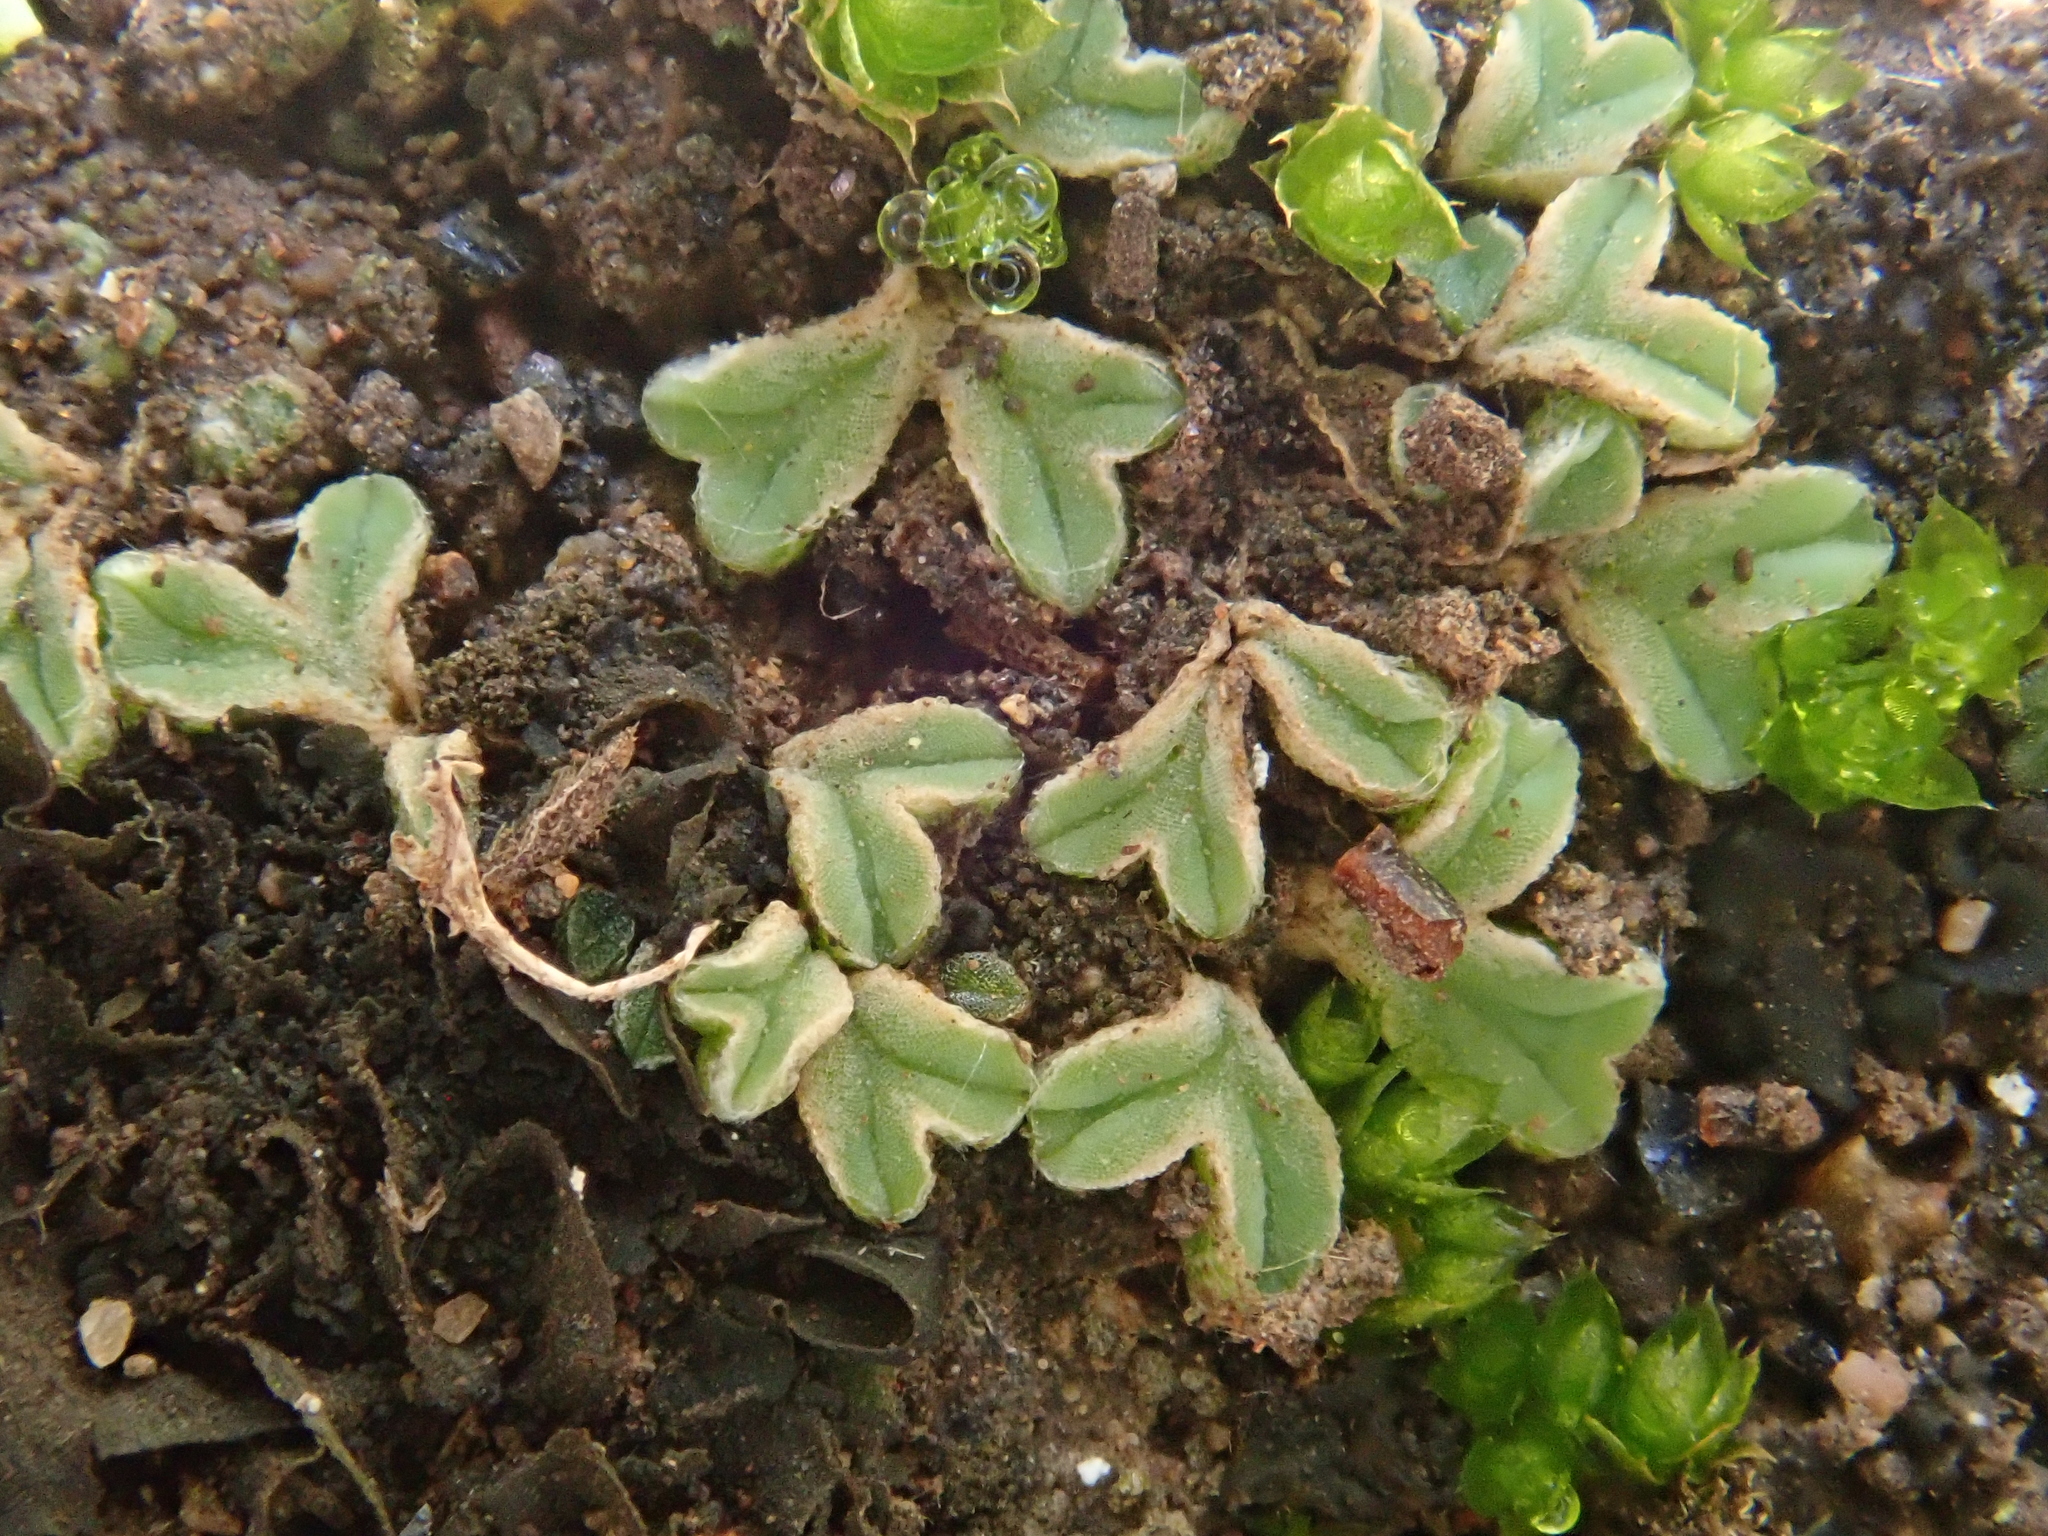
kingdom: Plantae
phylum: Marchantiophyta
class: Marchantiopsida
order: Marchantiales
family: Ricciaceae
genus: Riccia
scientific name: Riccia sorocarpa
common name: Common crystalwort
